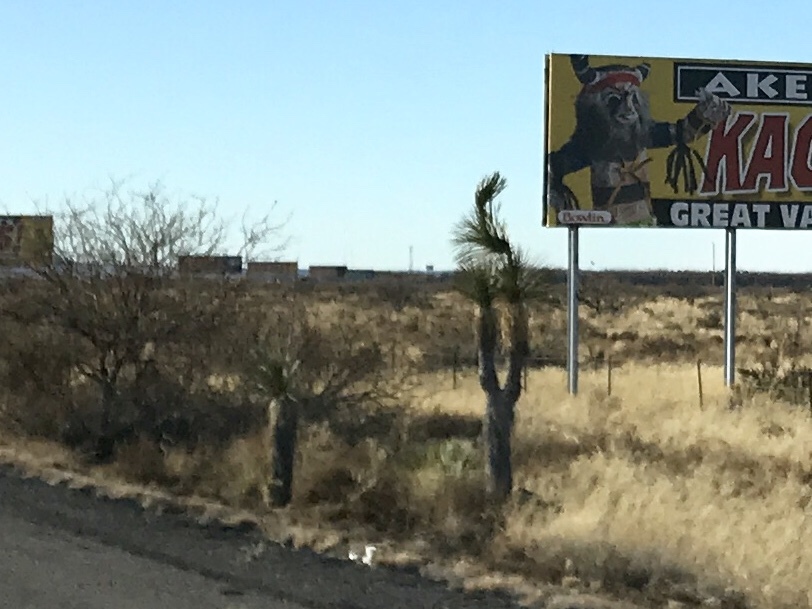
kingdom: Plantae
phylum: Tracheophyta
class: Liliopsida
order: Asparagales
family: Asparagaceae
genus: Yucca
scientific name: Yucca elata
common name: Palmella
